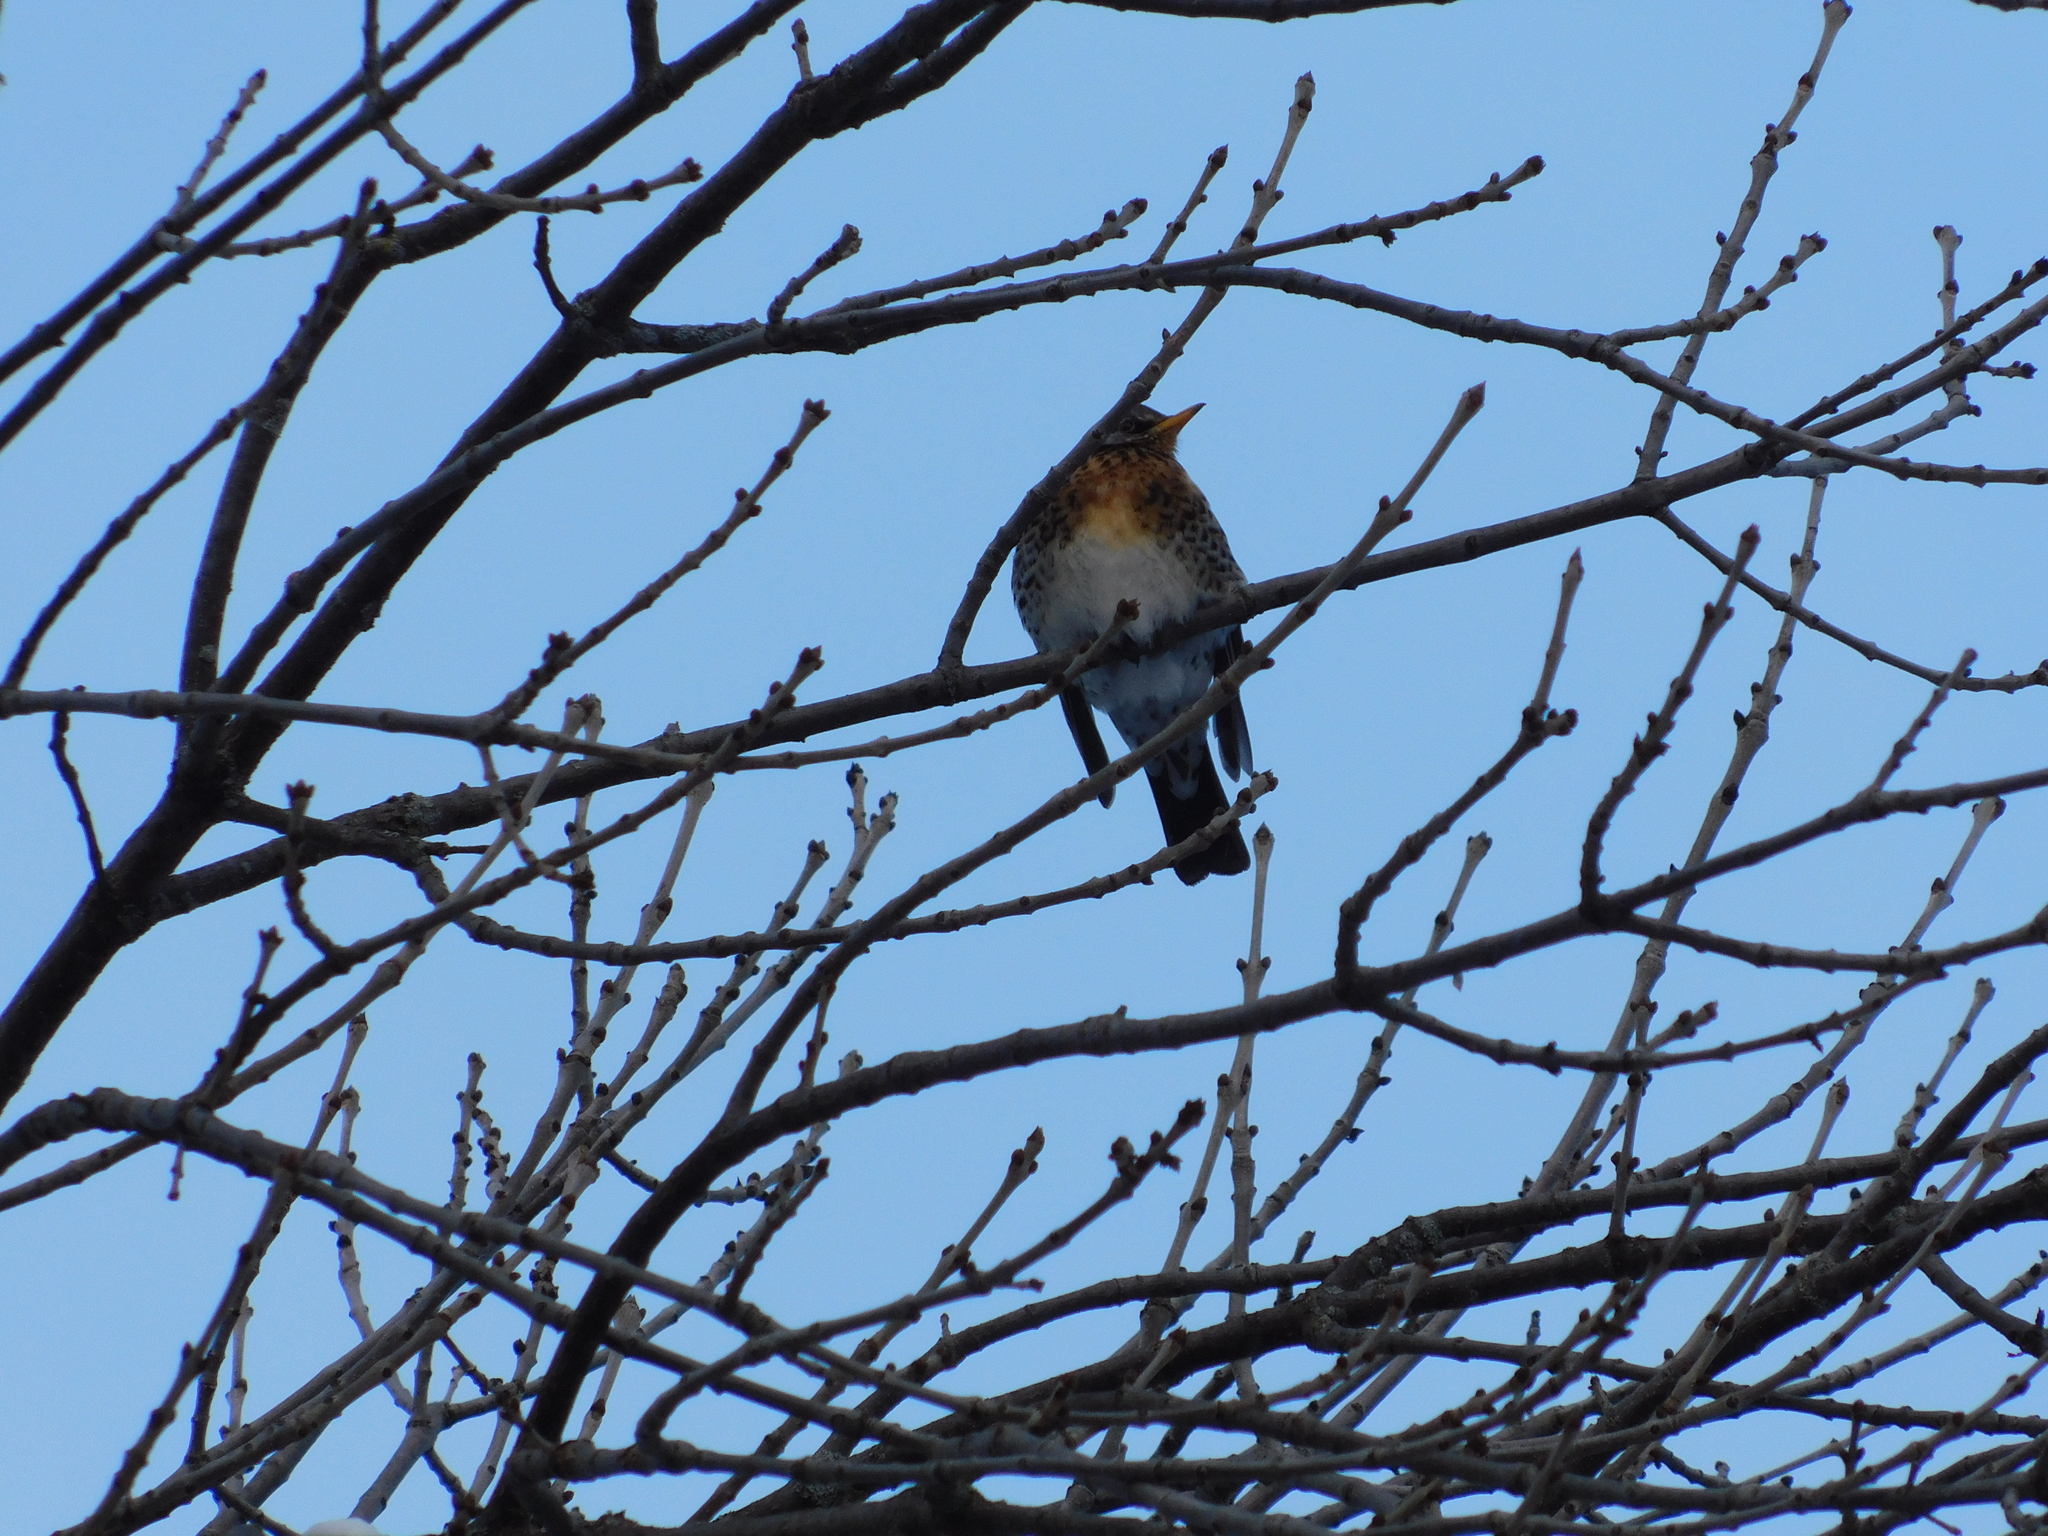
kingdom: Animalia
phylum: Chordata
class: Aves
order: Passeriformes
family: Turdidae
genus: Turdus
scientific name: Turdus pilaris
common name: Fieldfare
